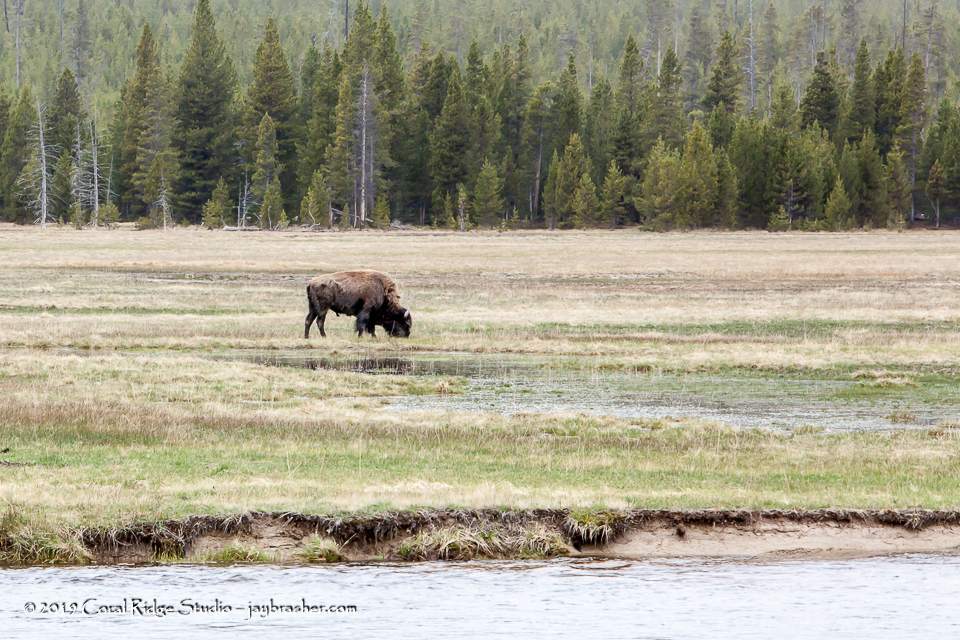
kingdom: Animalia
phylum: Chordata
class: Mammalia
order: Artiodactyla
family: Bovidae
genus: Bison
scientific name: Bison bison
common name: American bison
